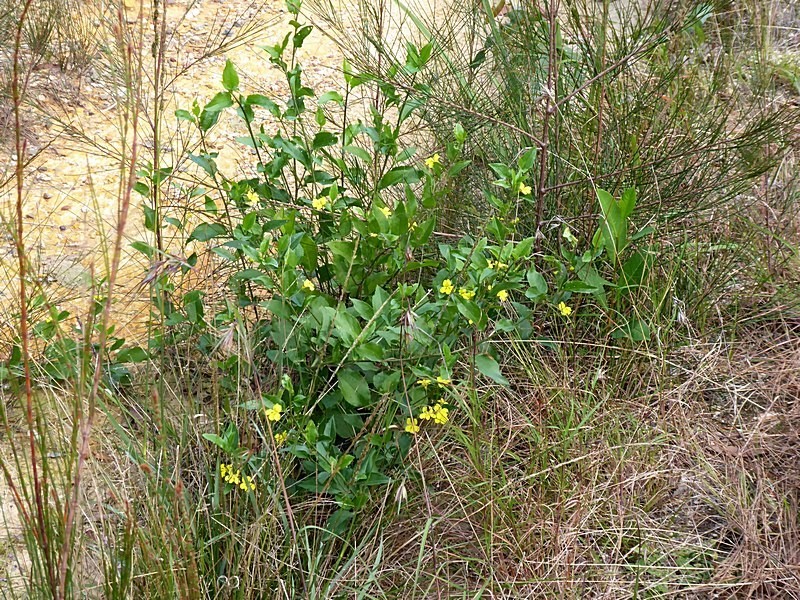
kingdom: Plantae
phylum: Tracheophyta
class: Magnoliopsida
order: Asterales
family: Goodeniaceae
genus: Goodenia
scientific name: Goodenia ovata
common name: Hop goodenia
